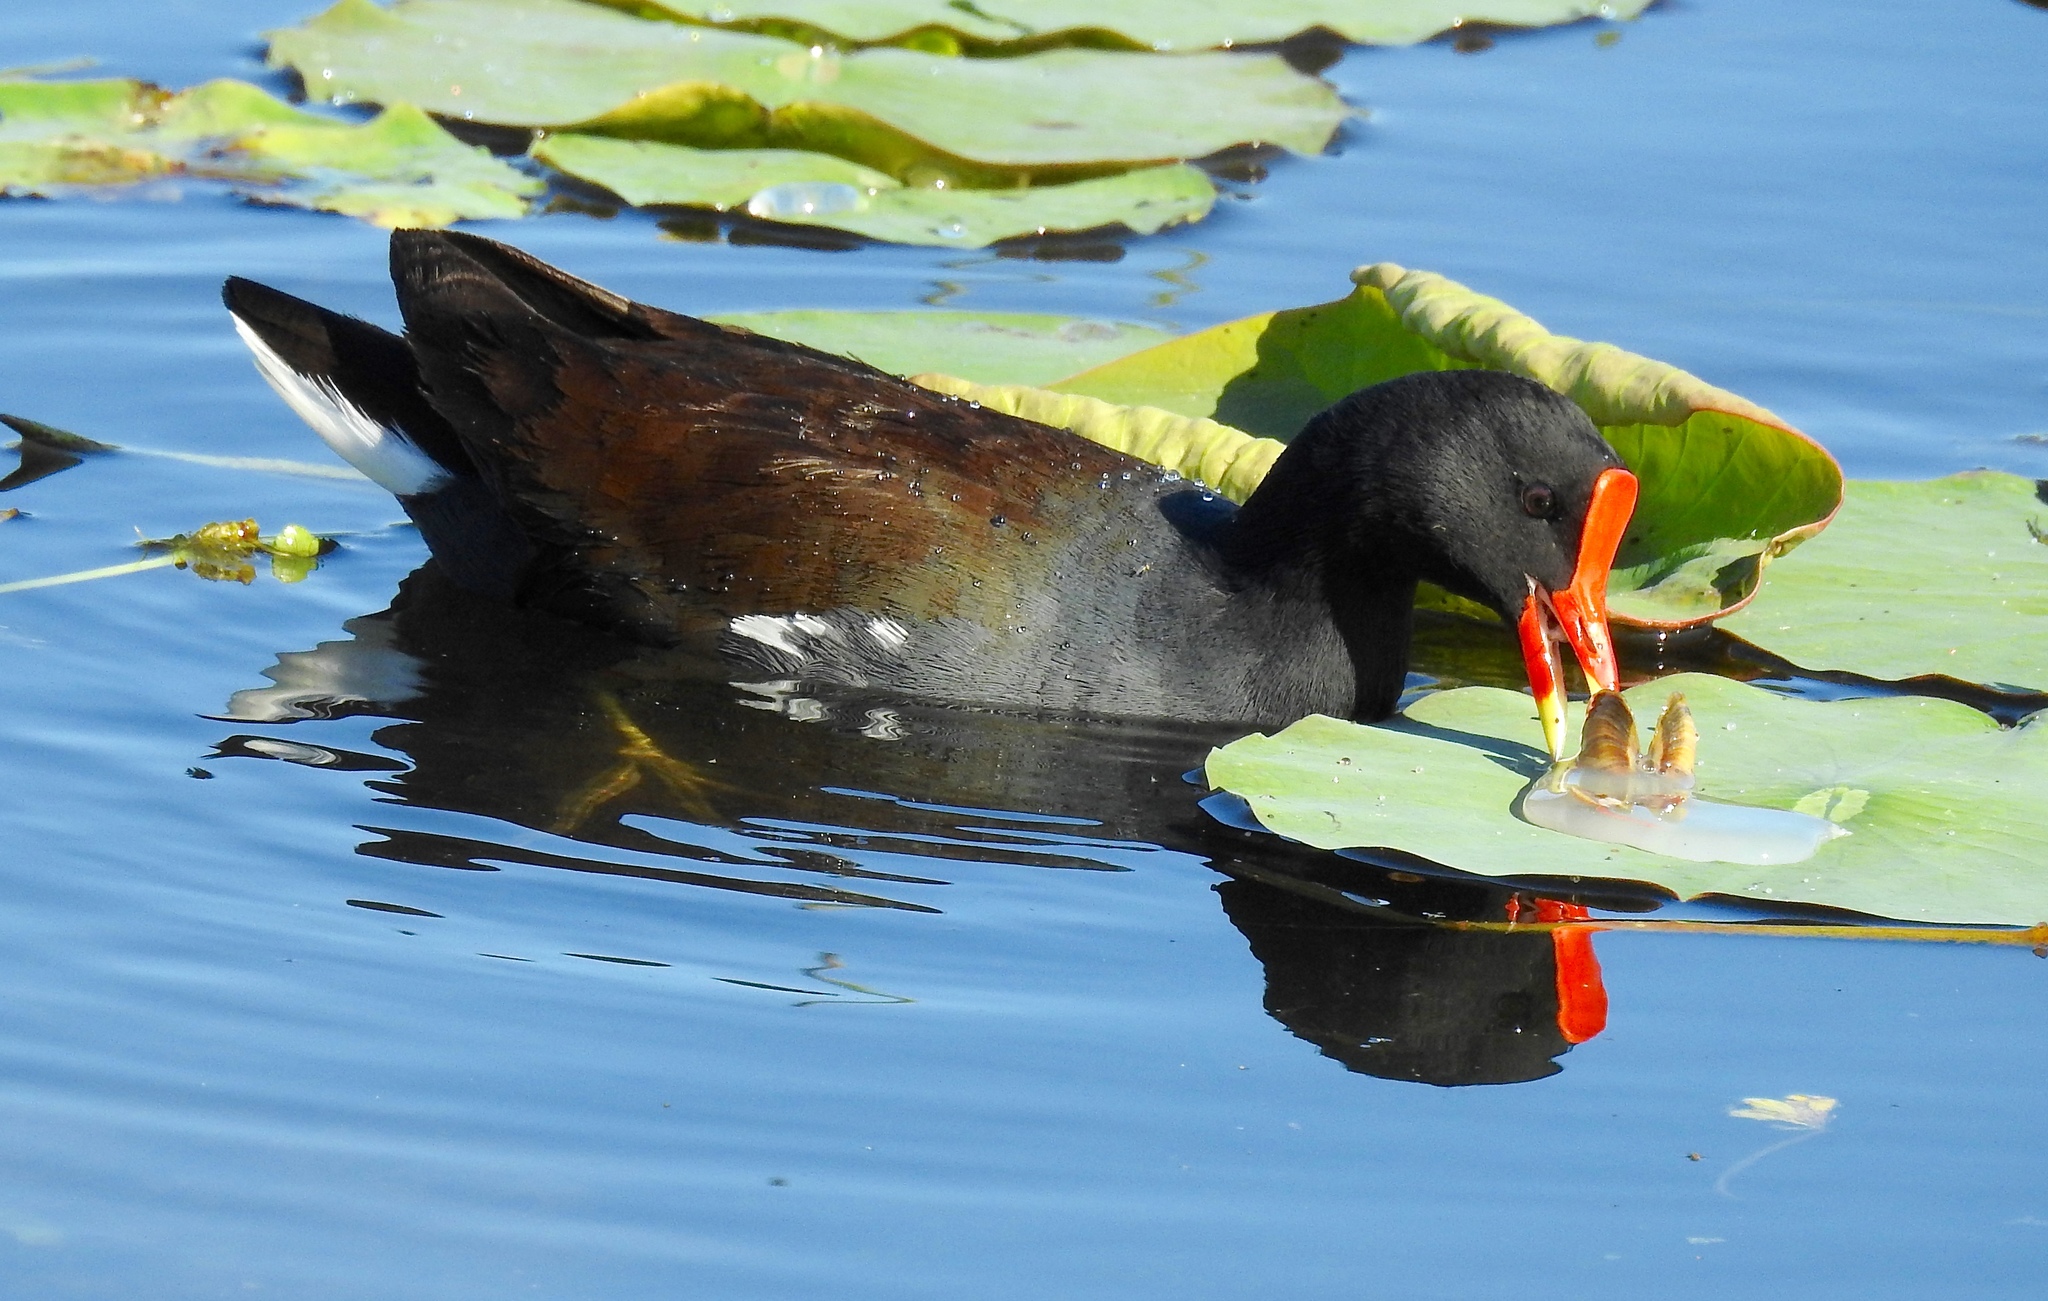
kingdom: Animalia
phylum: Chordata
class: Aves
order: Gruiformes
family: Rallidae
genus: Gallinula
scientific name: Gallinula chloropus
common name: Common moorhen
